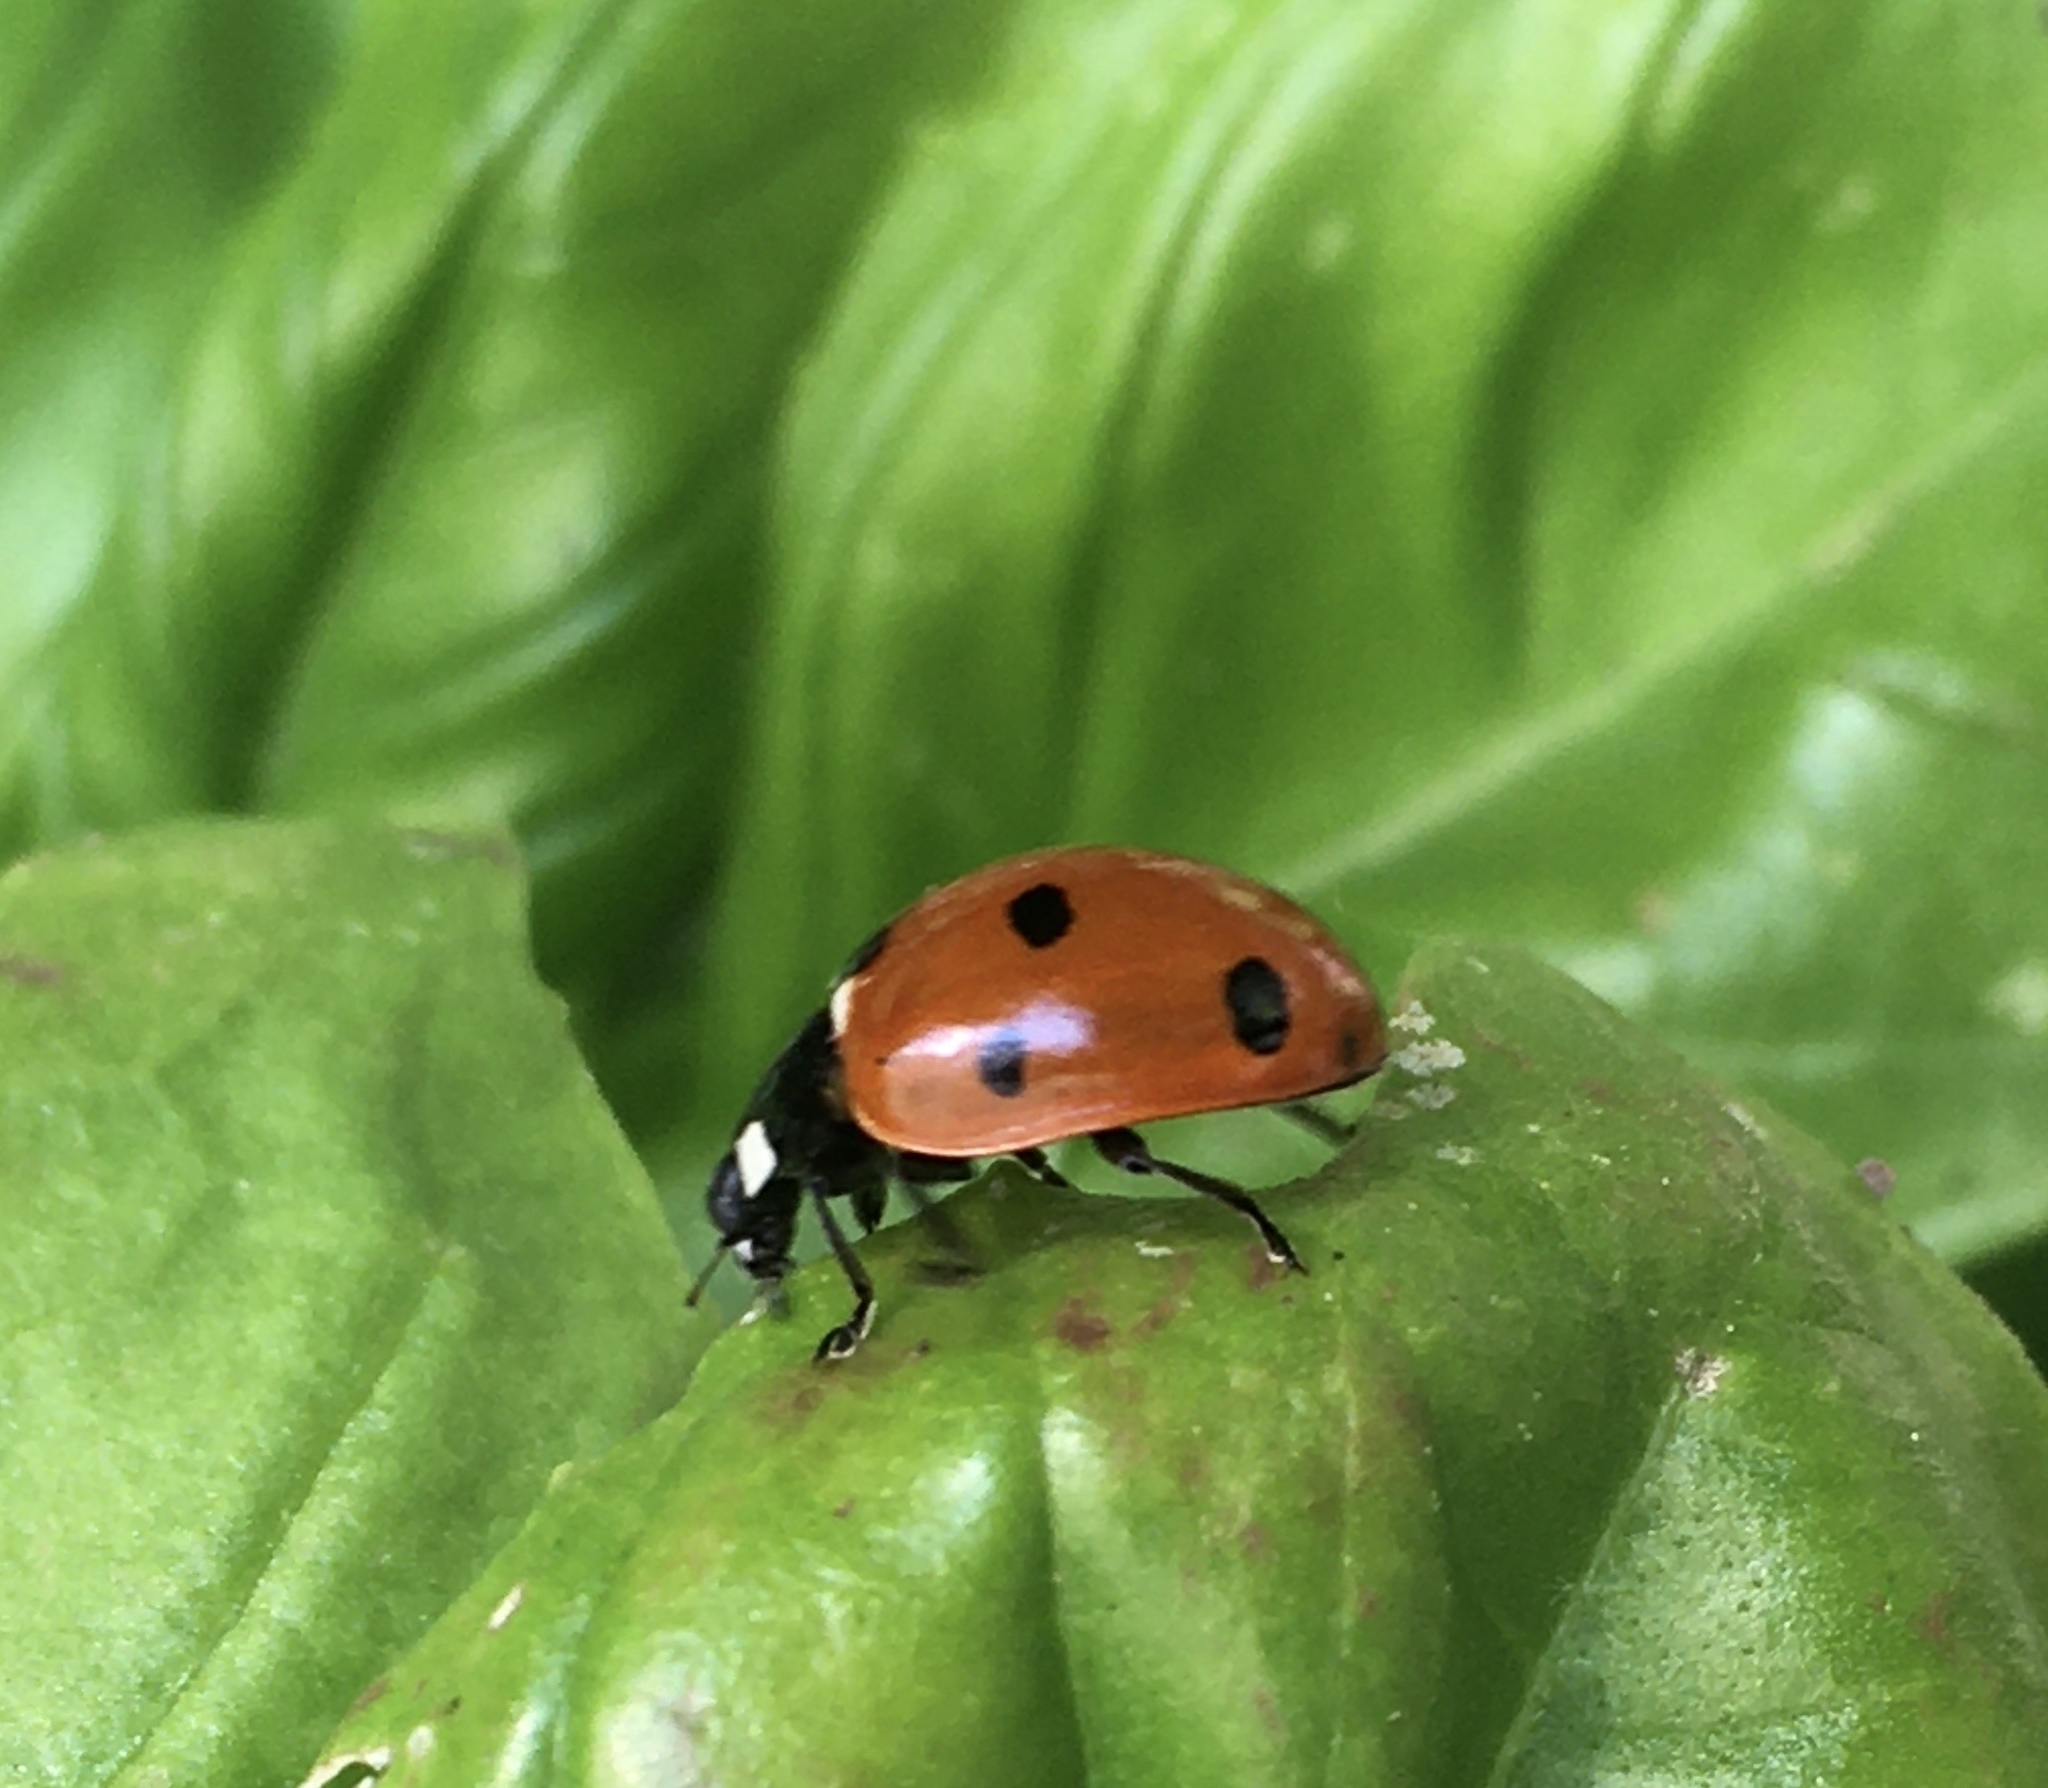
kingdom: Animalia
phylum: Arthropoda
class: Insecta
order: Coleoptera
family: Coccinellidae
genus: Coccinella
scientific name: Coccinella septempunctata
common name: Sevenspotted lady beetle
